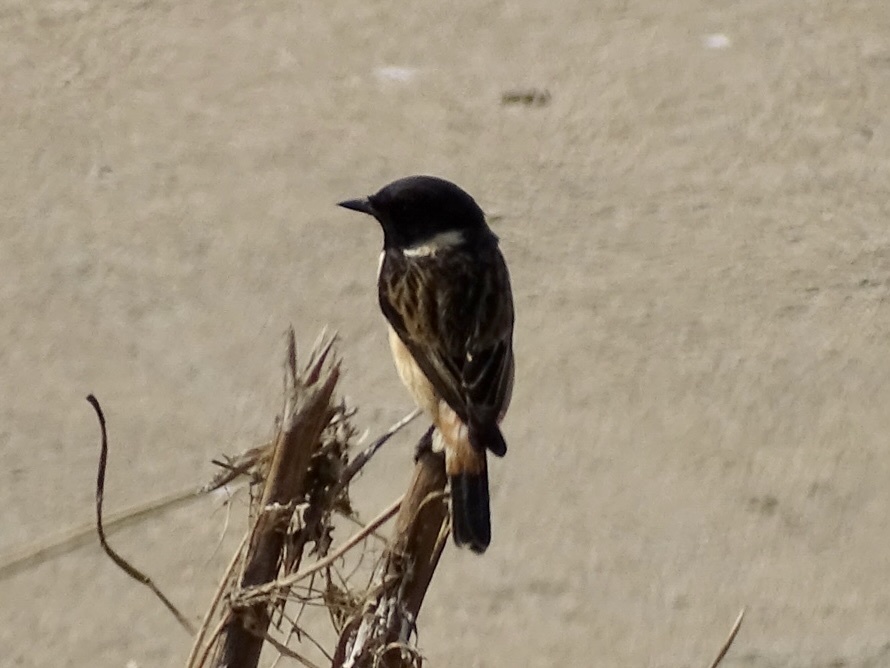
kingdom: Animalia
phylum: Chordata
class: Aves
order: Passeriformes
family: Muscicapidae
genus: Saxicola
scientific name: Saxicola maurus
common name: Siberian stonechat
